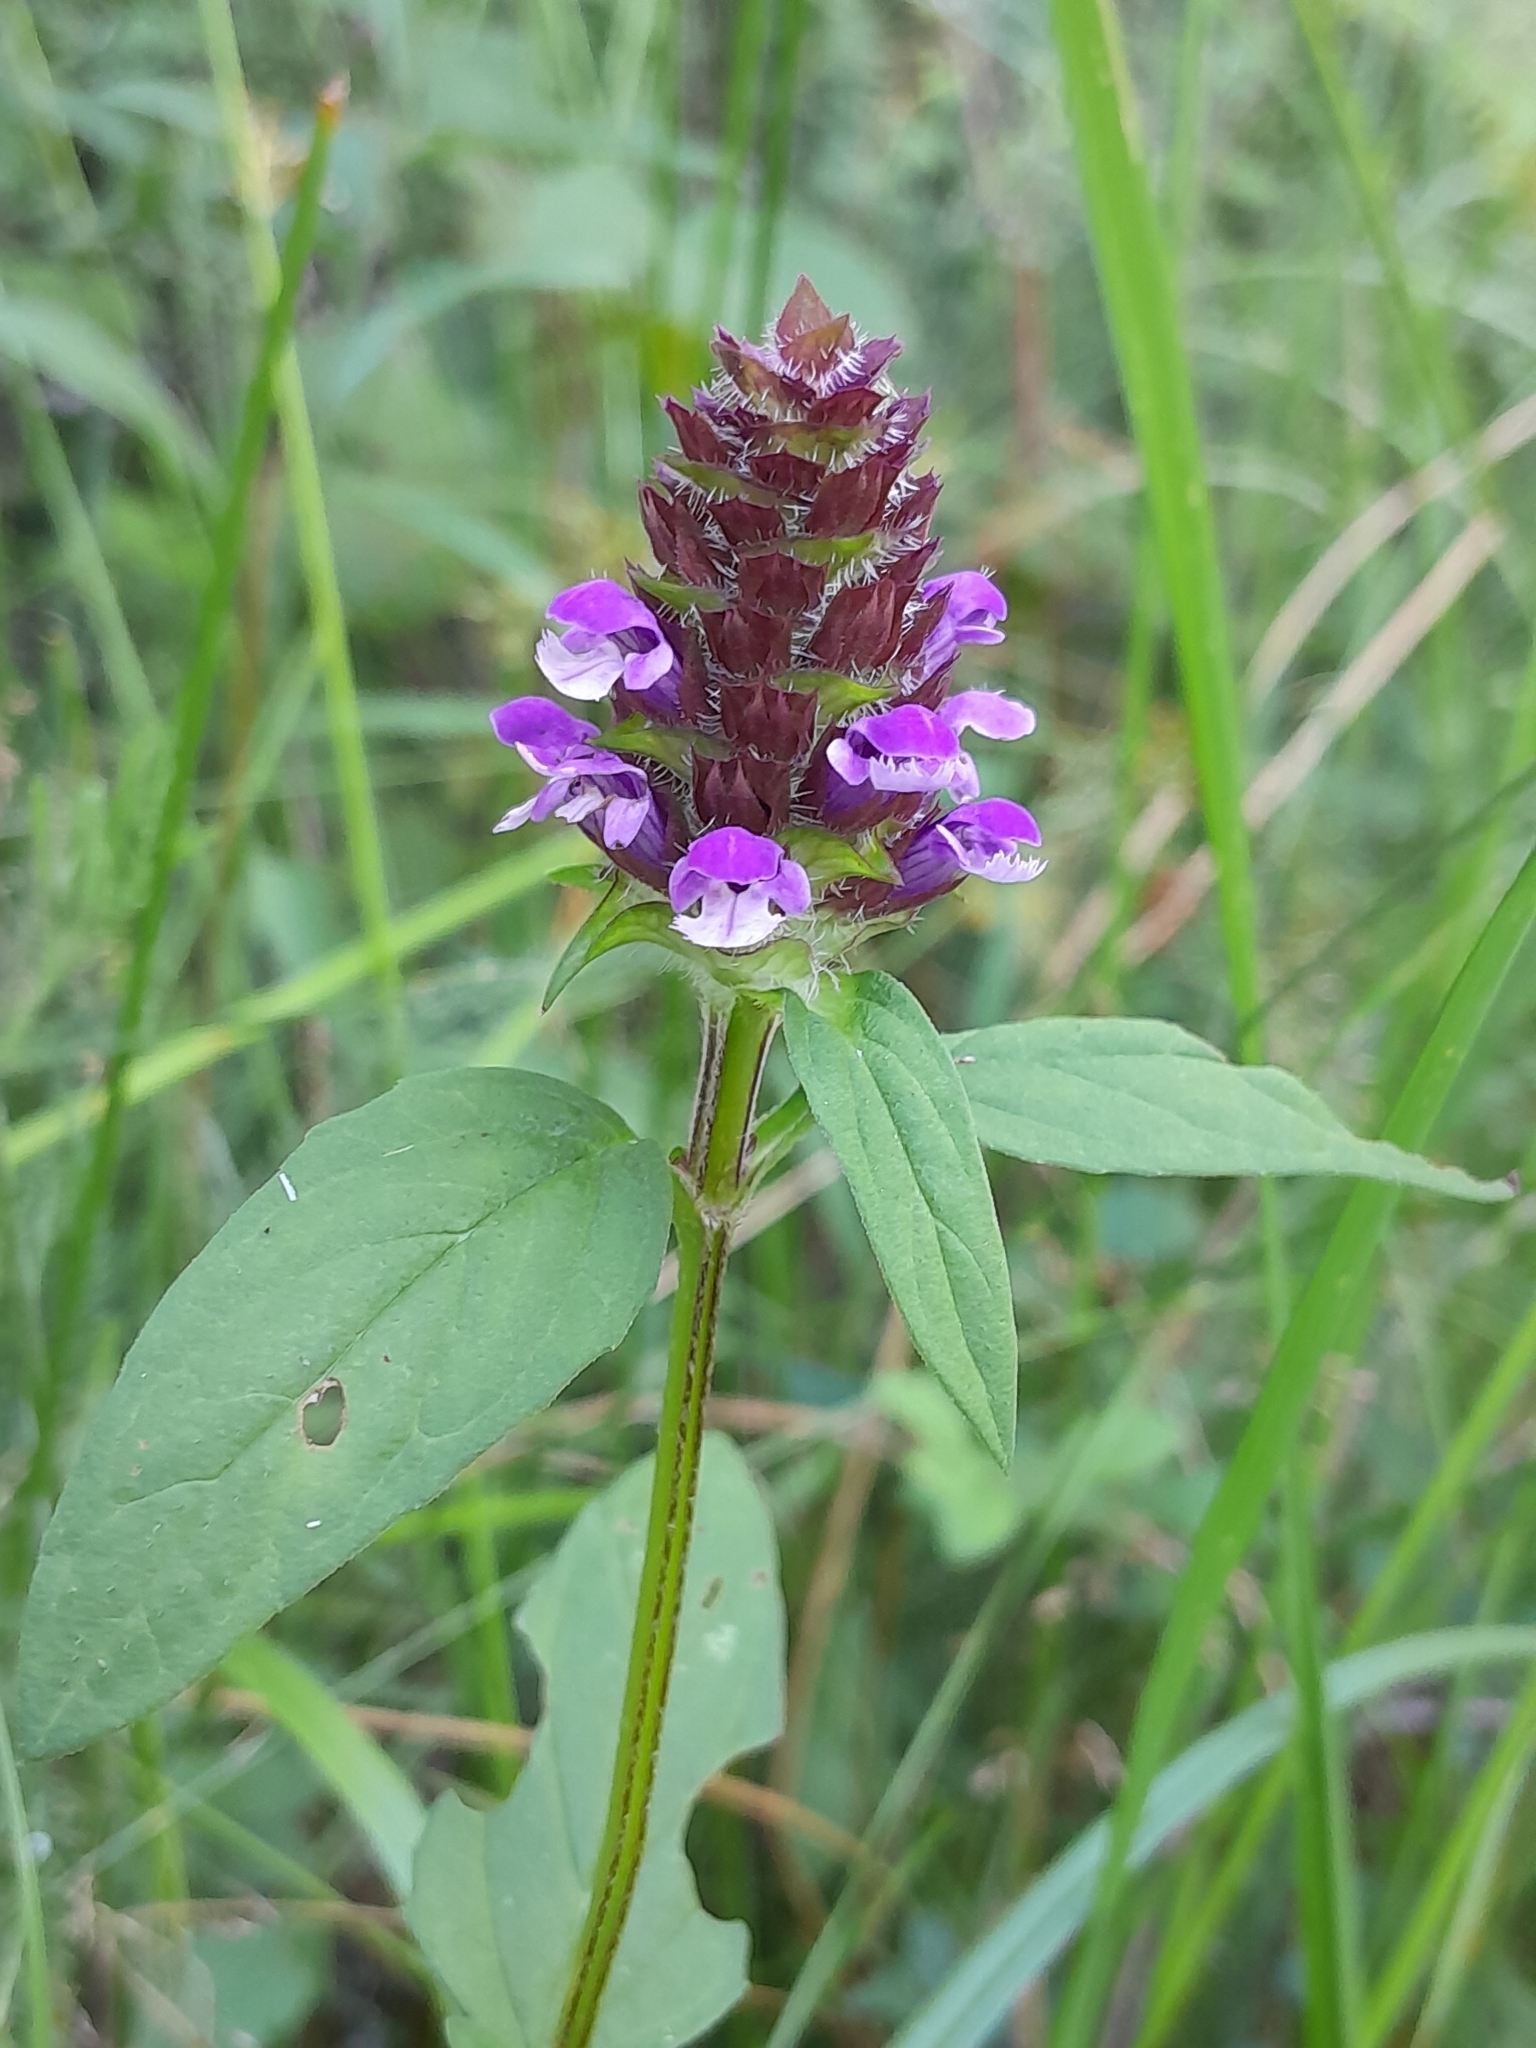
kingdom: Plantae
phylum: Tracheophyta
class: Magnoliopsida
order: Lamiales
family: Lamiaceae
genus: Prunella
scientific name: Prunella vulgaris
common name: Heal-all
